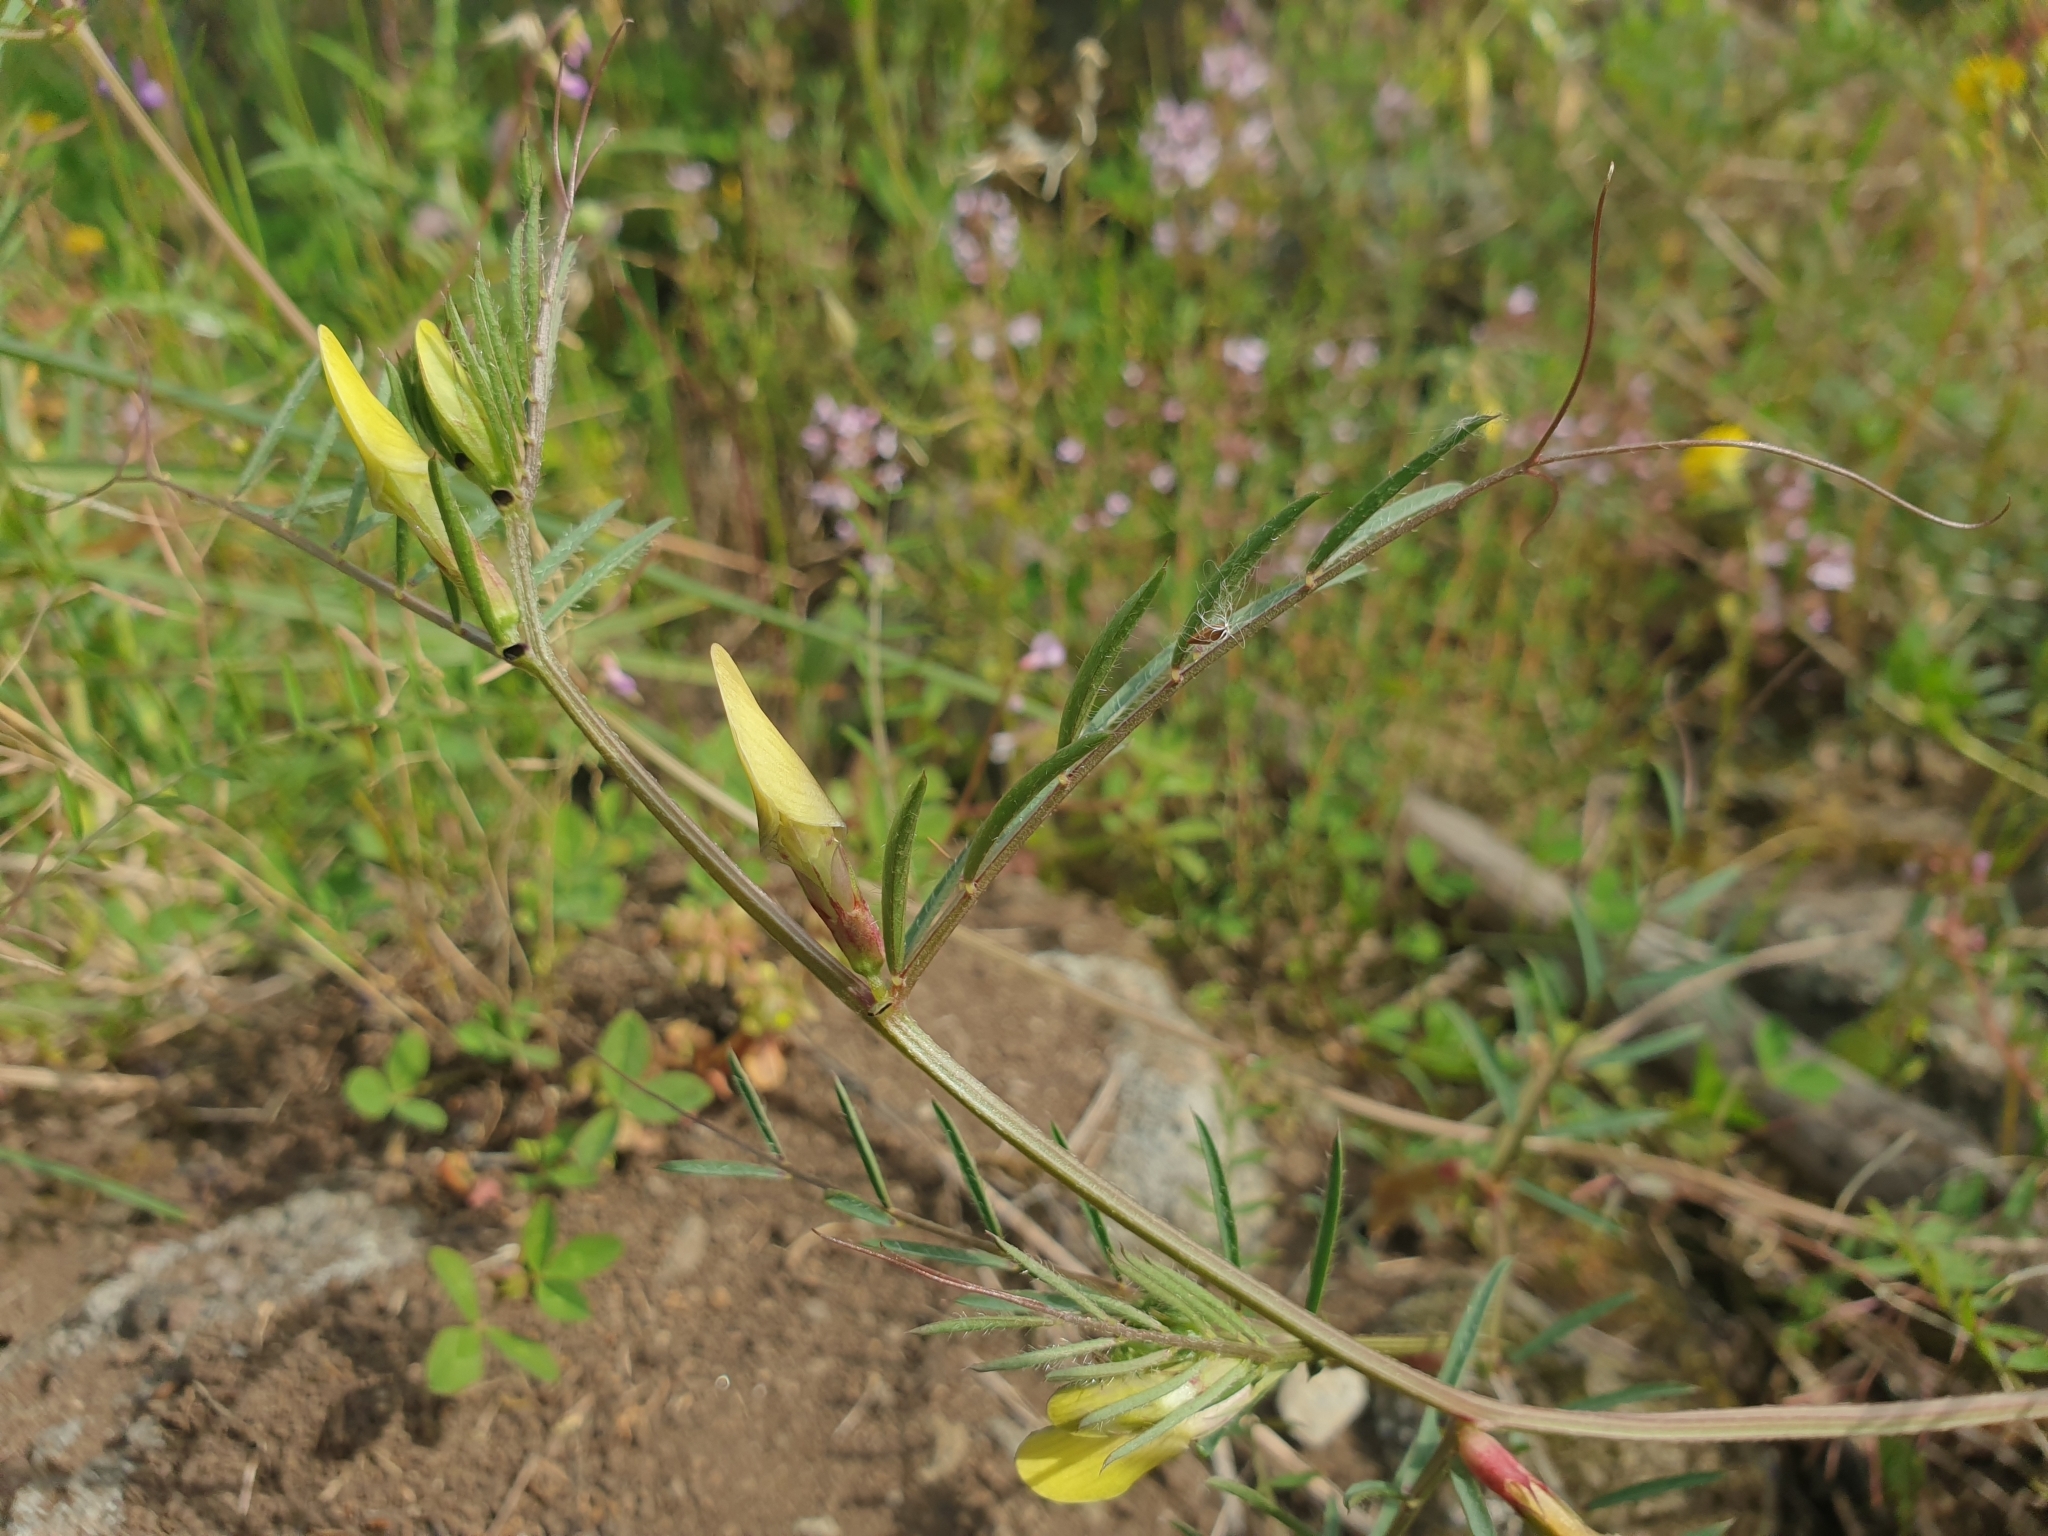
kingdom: Plantae
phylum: Tracheophyta
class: Magnoliopsida
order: Fabales
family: Fabaceae
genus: Vicia
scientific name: Vicia lutea
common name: Smooth yellow vetch
